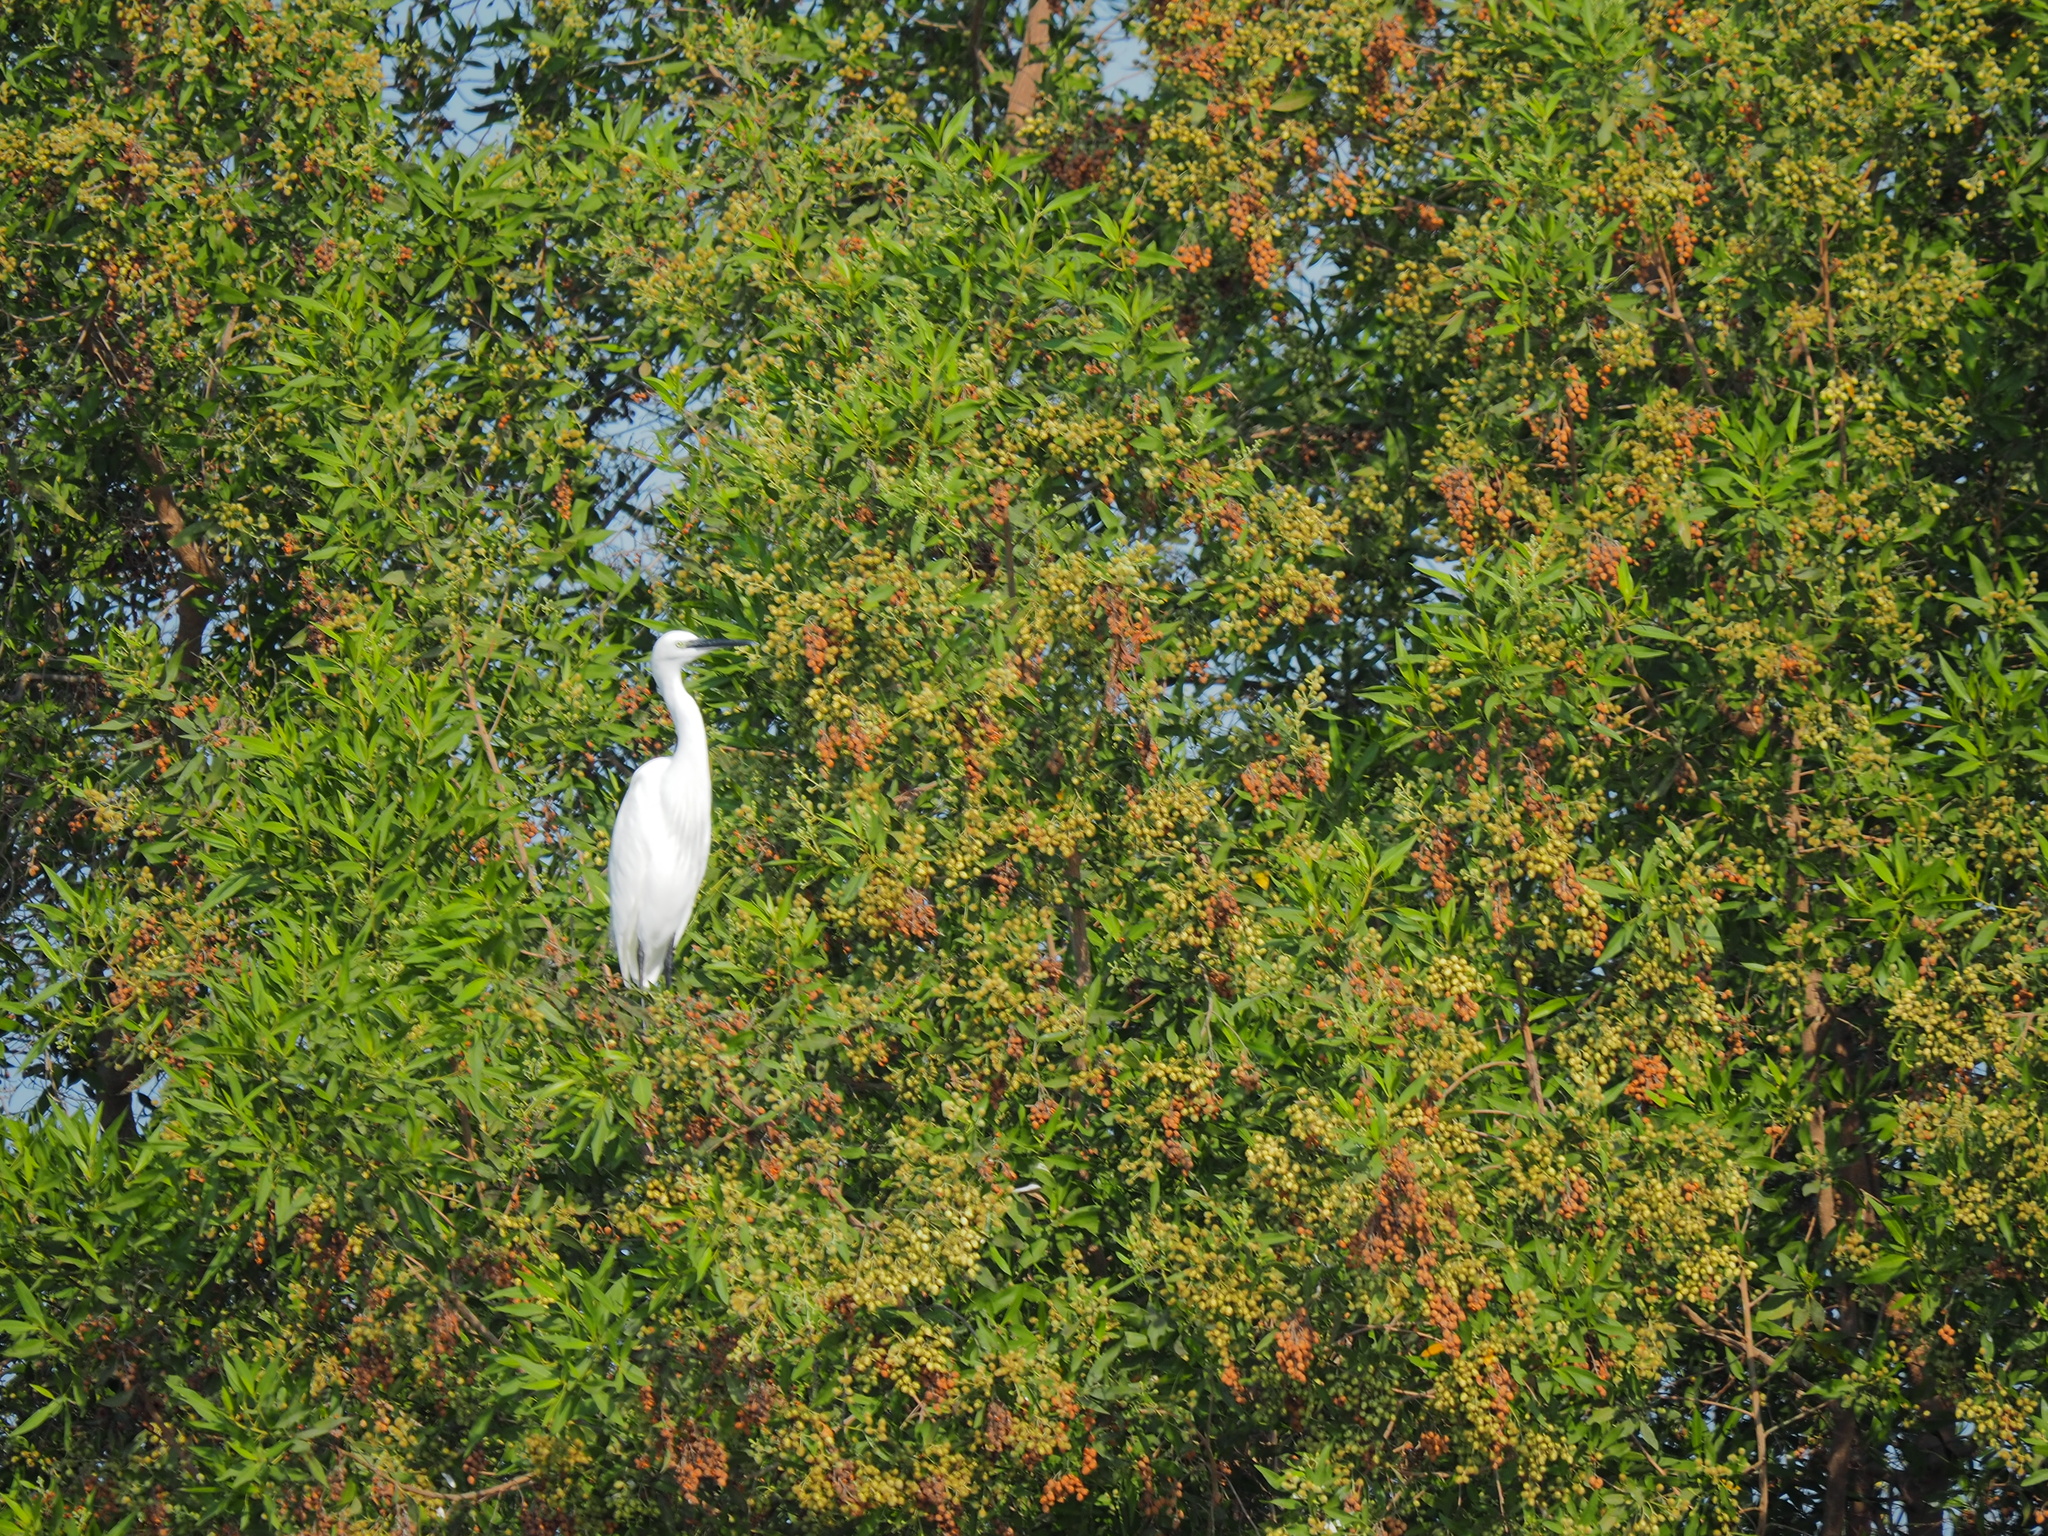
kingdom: Animalia
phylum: Chordata
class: Aves
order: Pelecaniformes
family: Ardeidae
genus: Egretta
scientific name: Egretta garzetta
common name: Little egret
